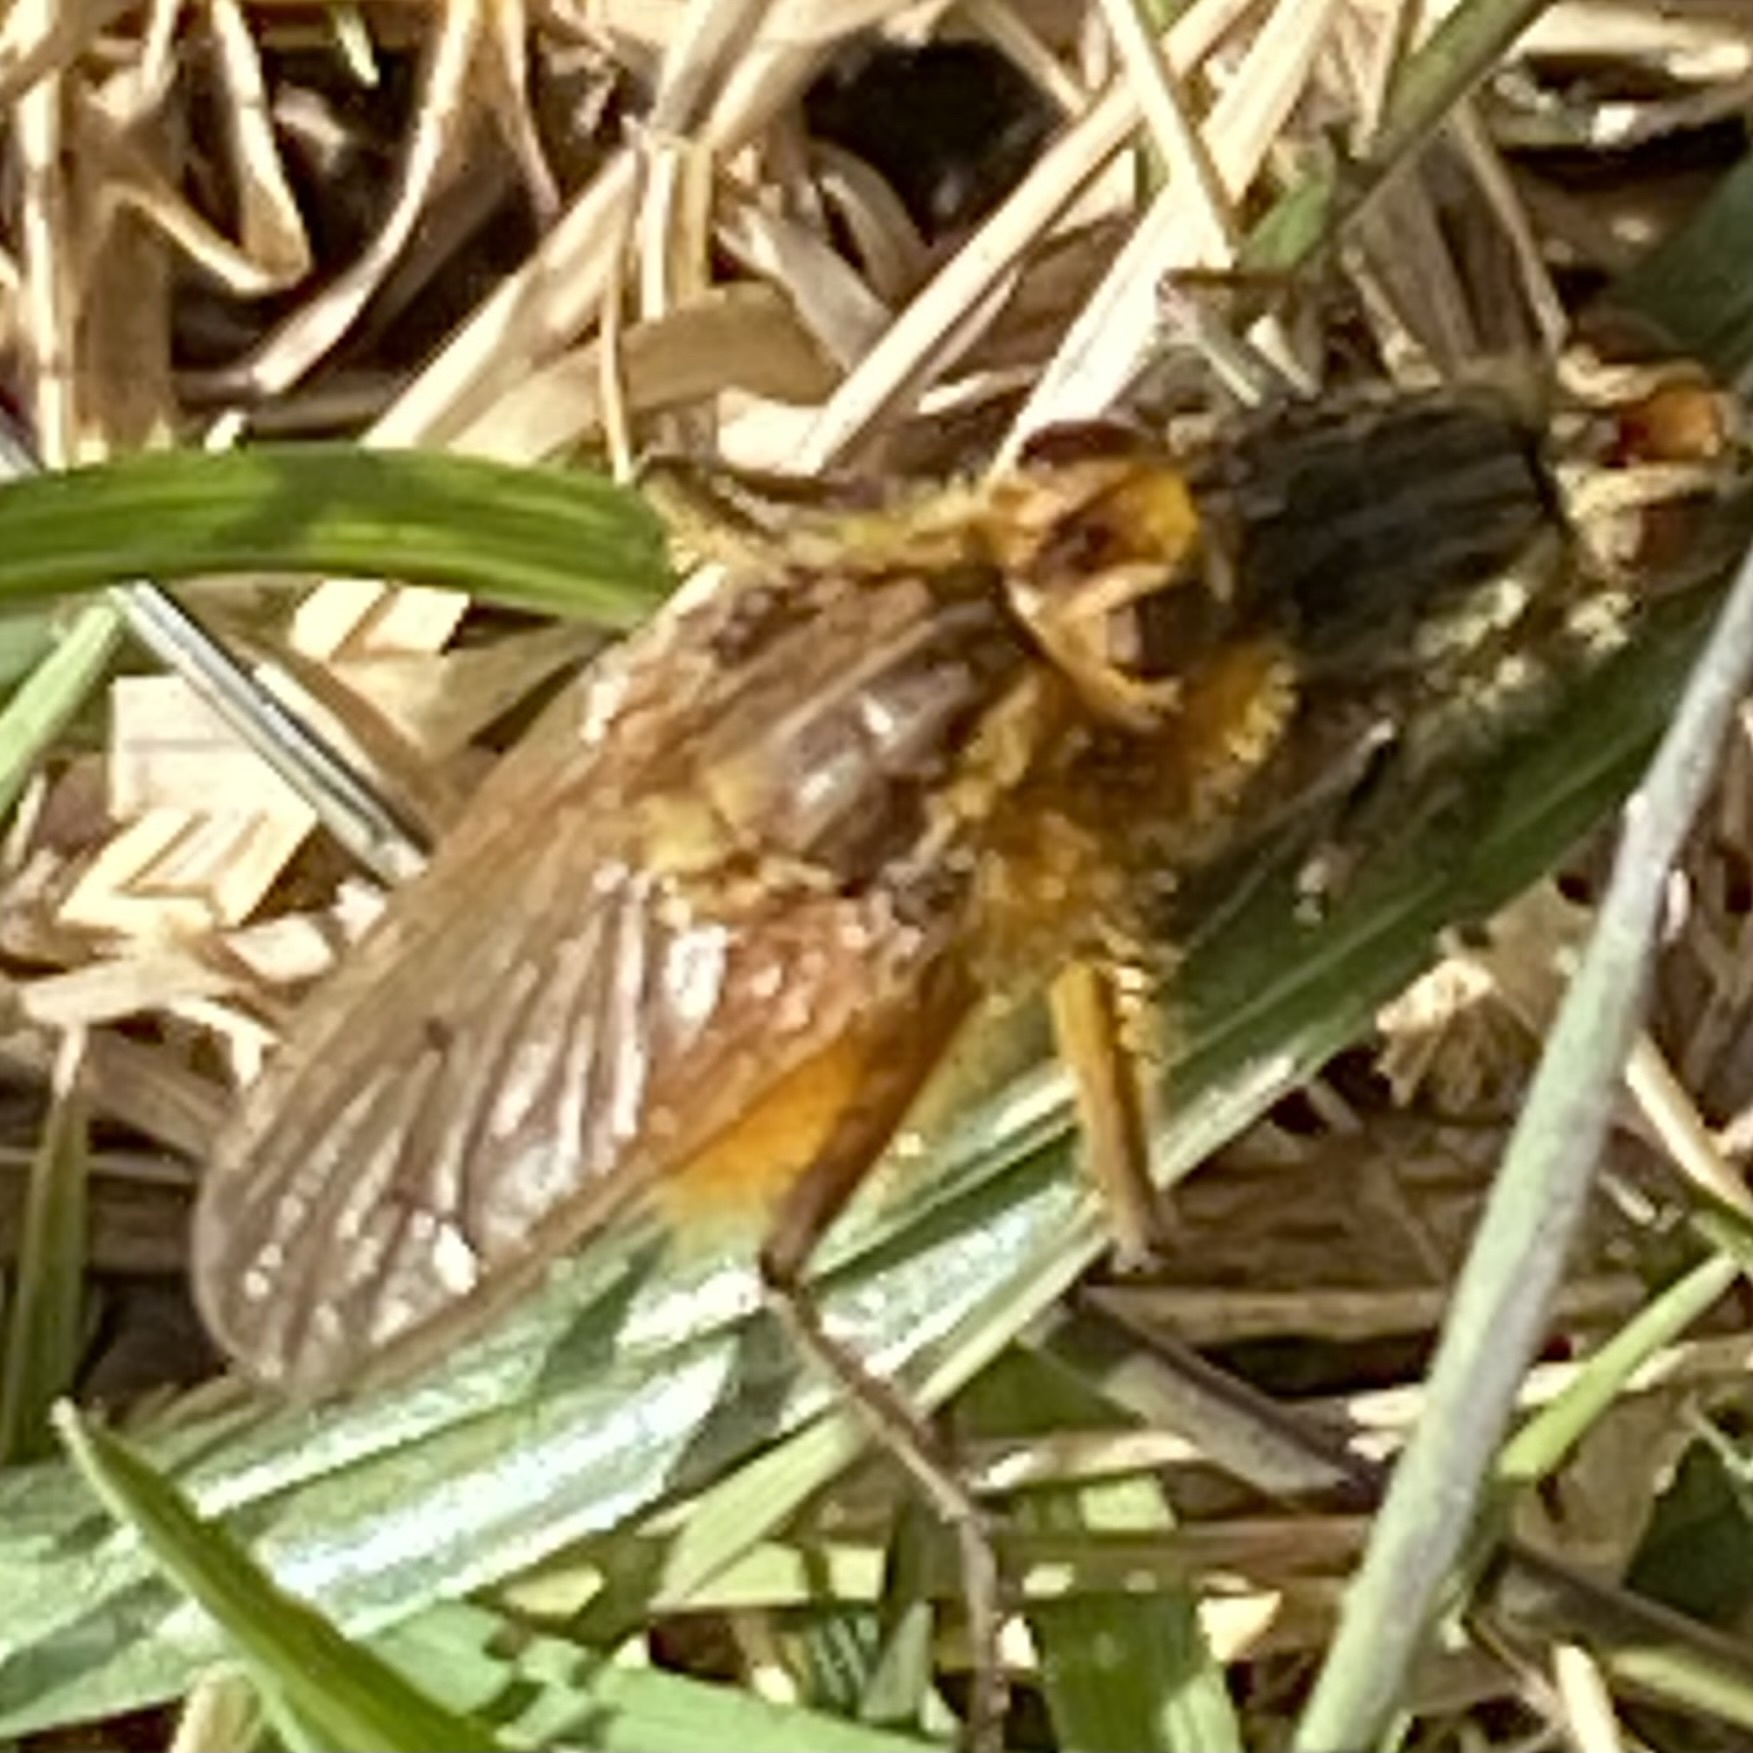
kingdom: Animalia
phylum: Arthropoda
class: Insecta
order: Diptera
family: Scathophagidae
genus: Scathophaga
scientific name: Scathophaga stercoraria
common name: Yellow dung fly
